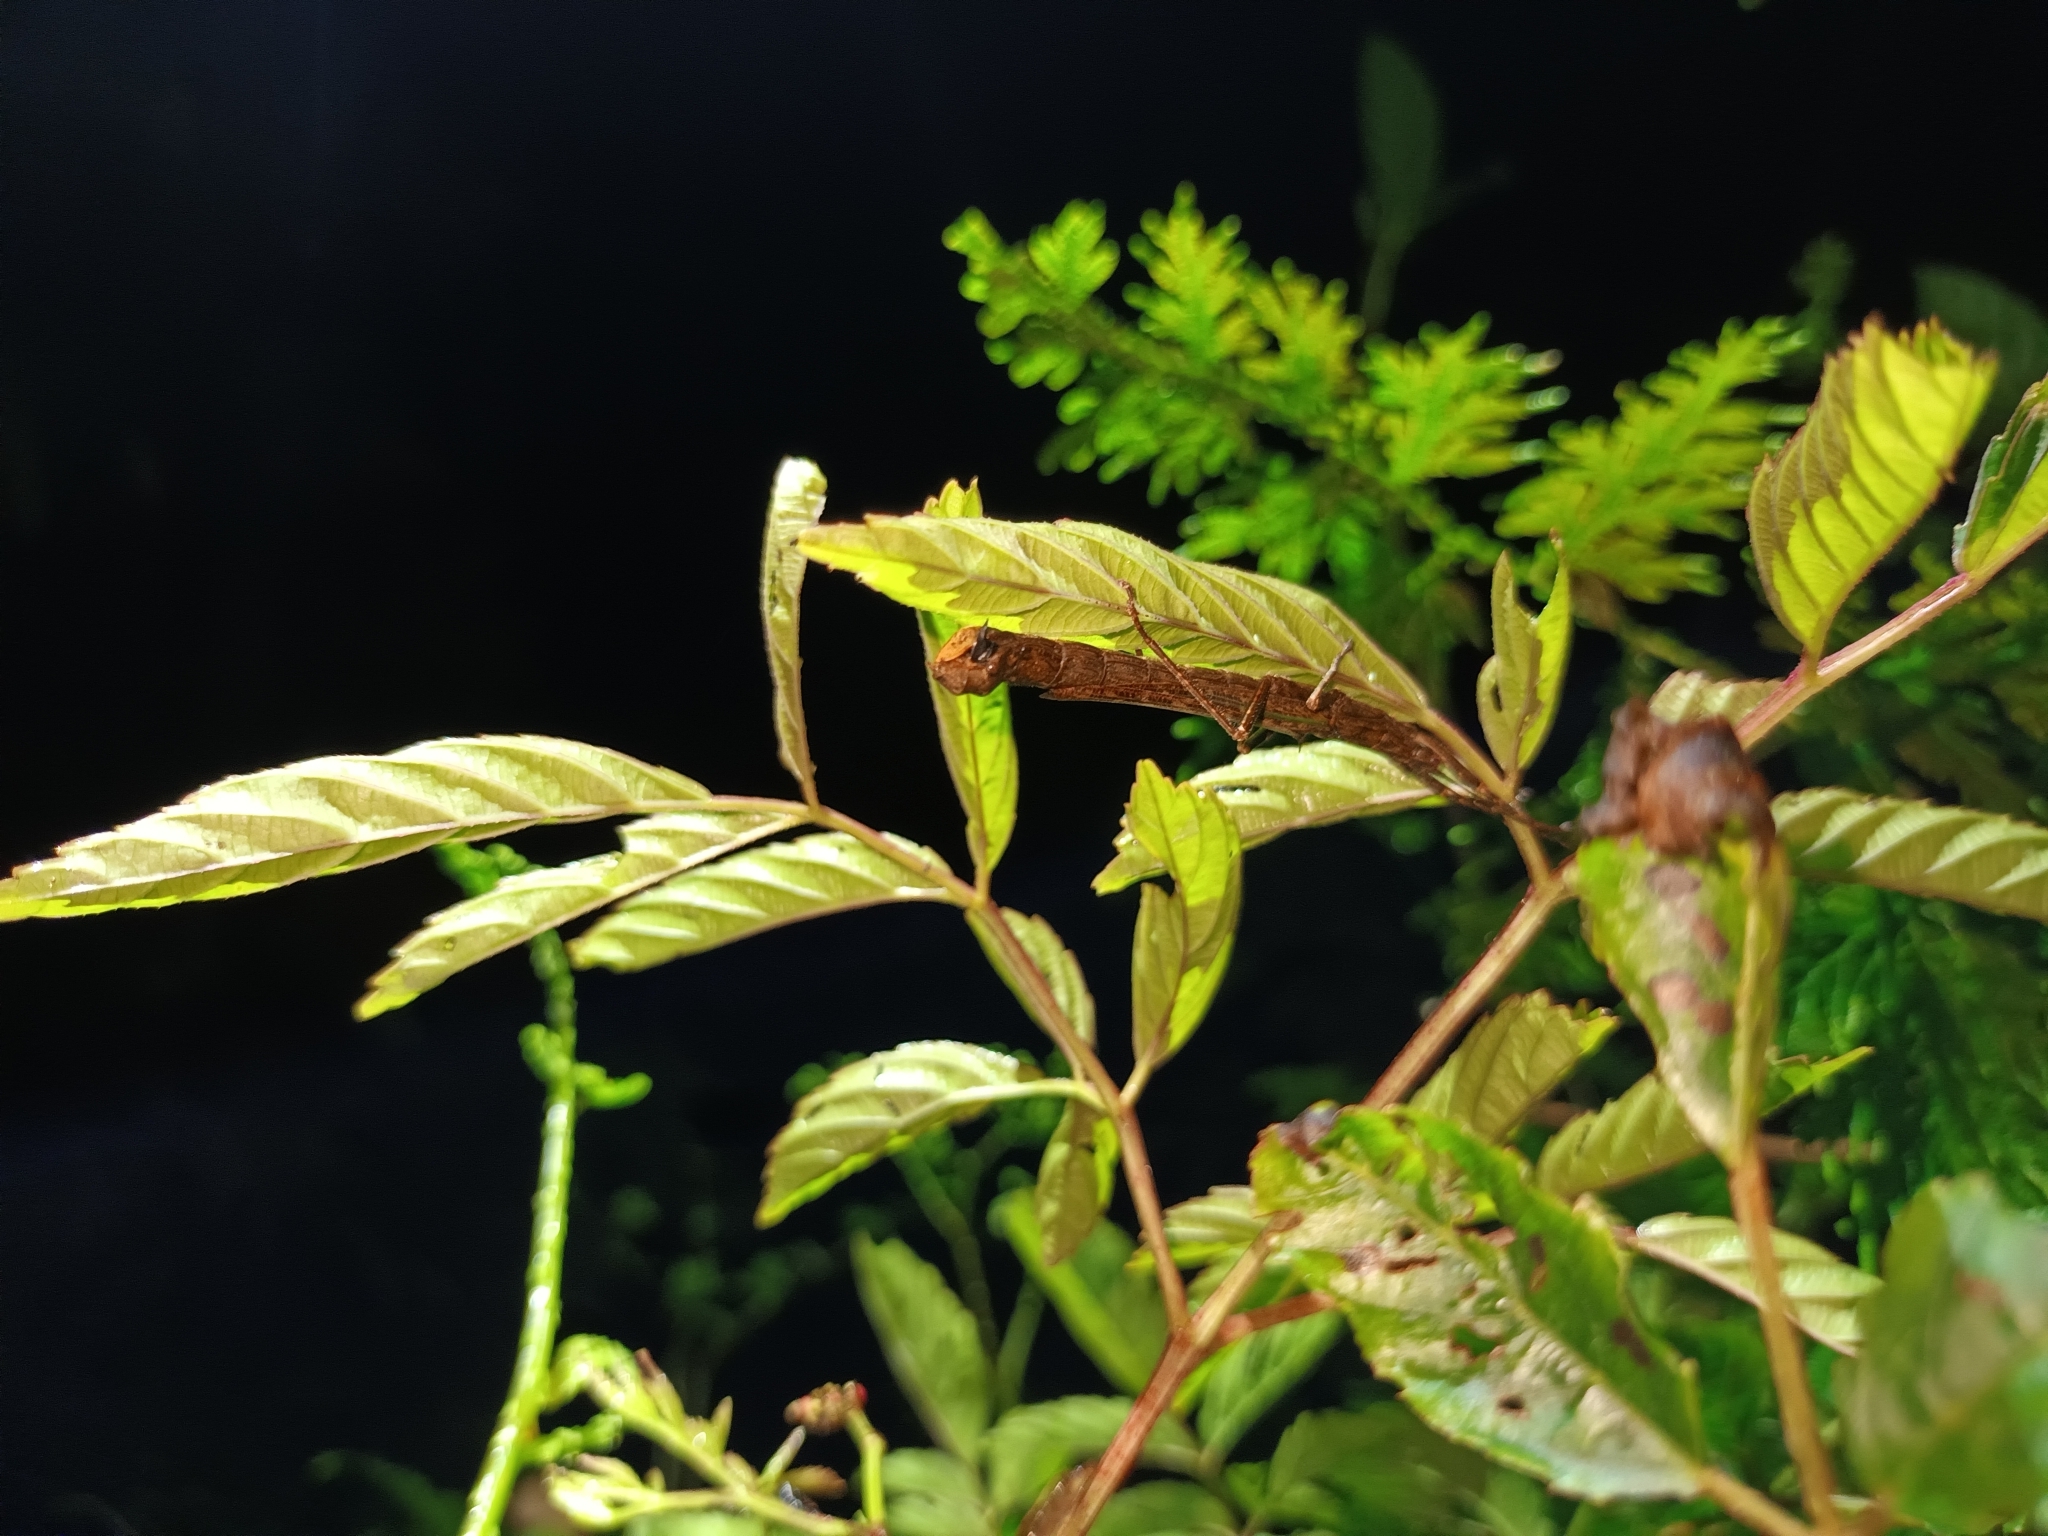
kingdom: Animalia
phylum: Arthropoda
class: Insecta
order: Phasmida
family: Aschiphasmatidae
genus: Presbistus
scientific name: Presbistus peleus
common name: Green striped flying stick
